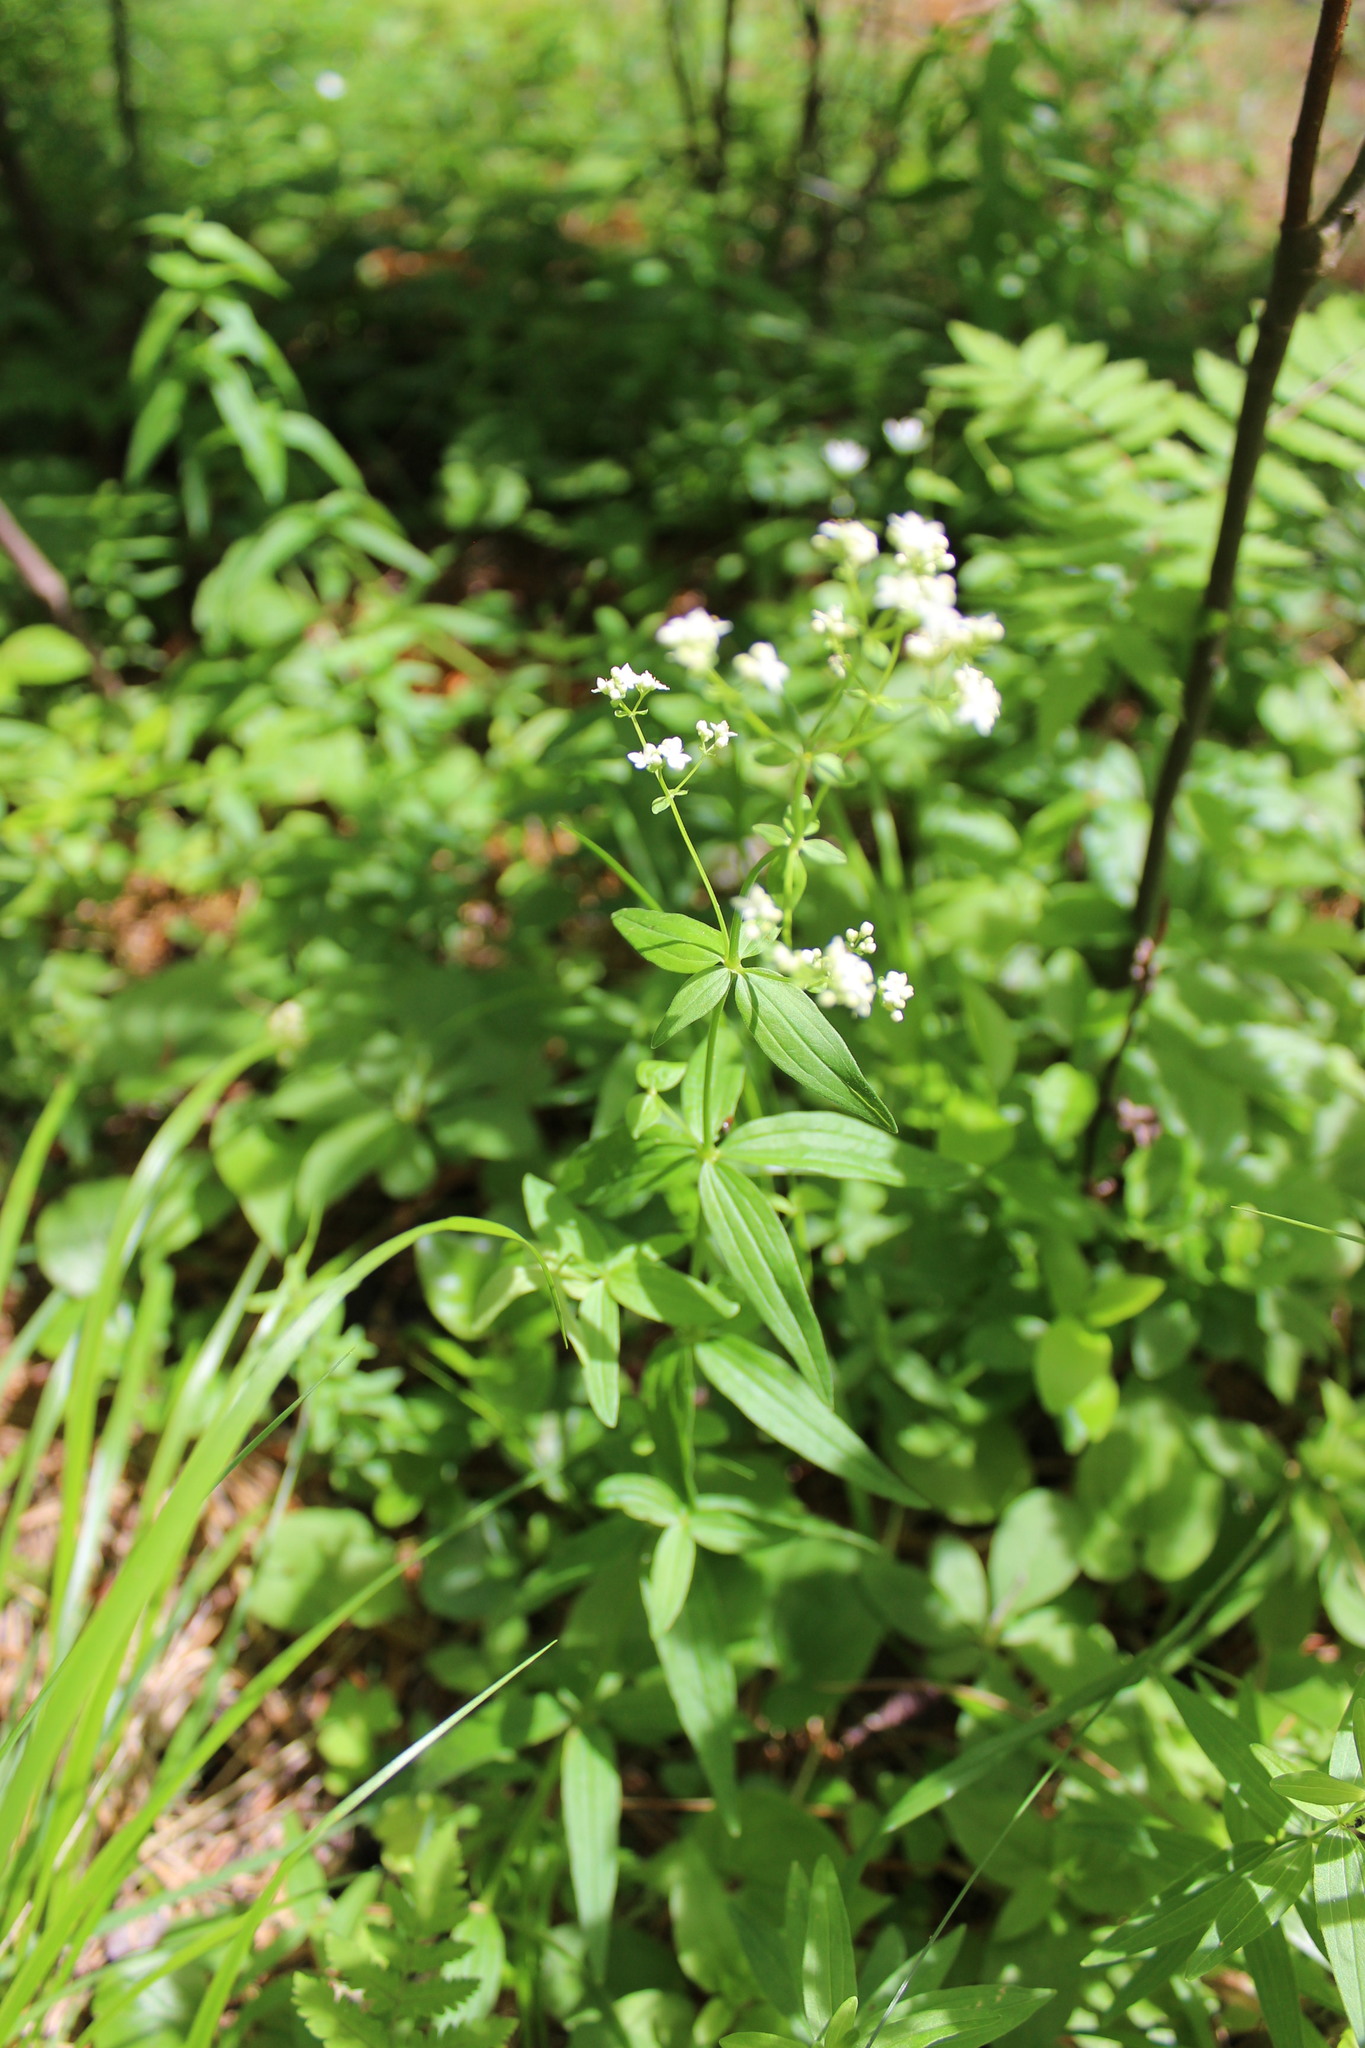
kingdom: Plantae
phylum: Tracheophyta
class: Magnoliopsida
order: Gentianales
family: Rubiaceae
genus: Galium
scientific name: Galium boreale
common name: Northern bedstraw
